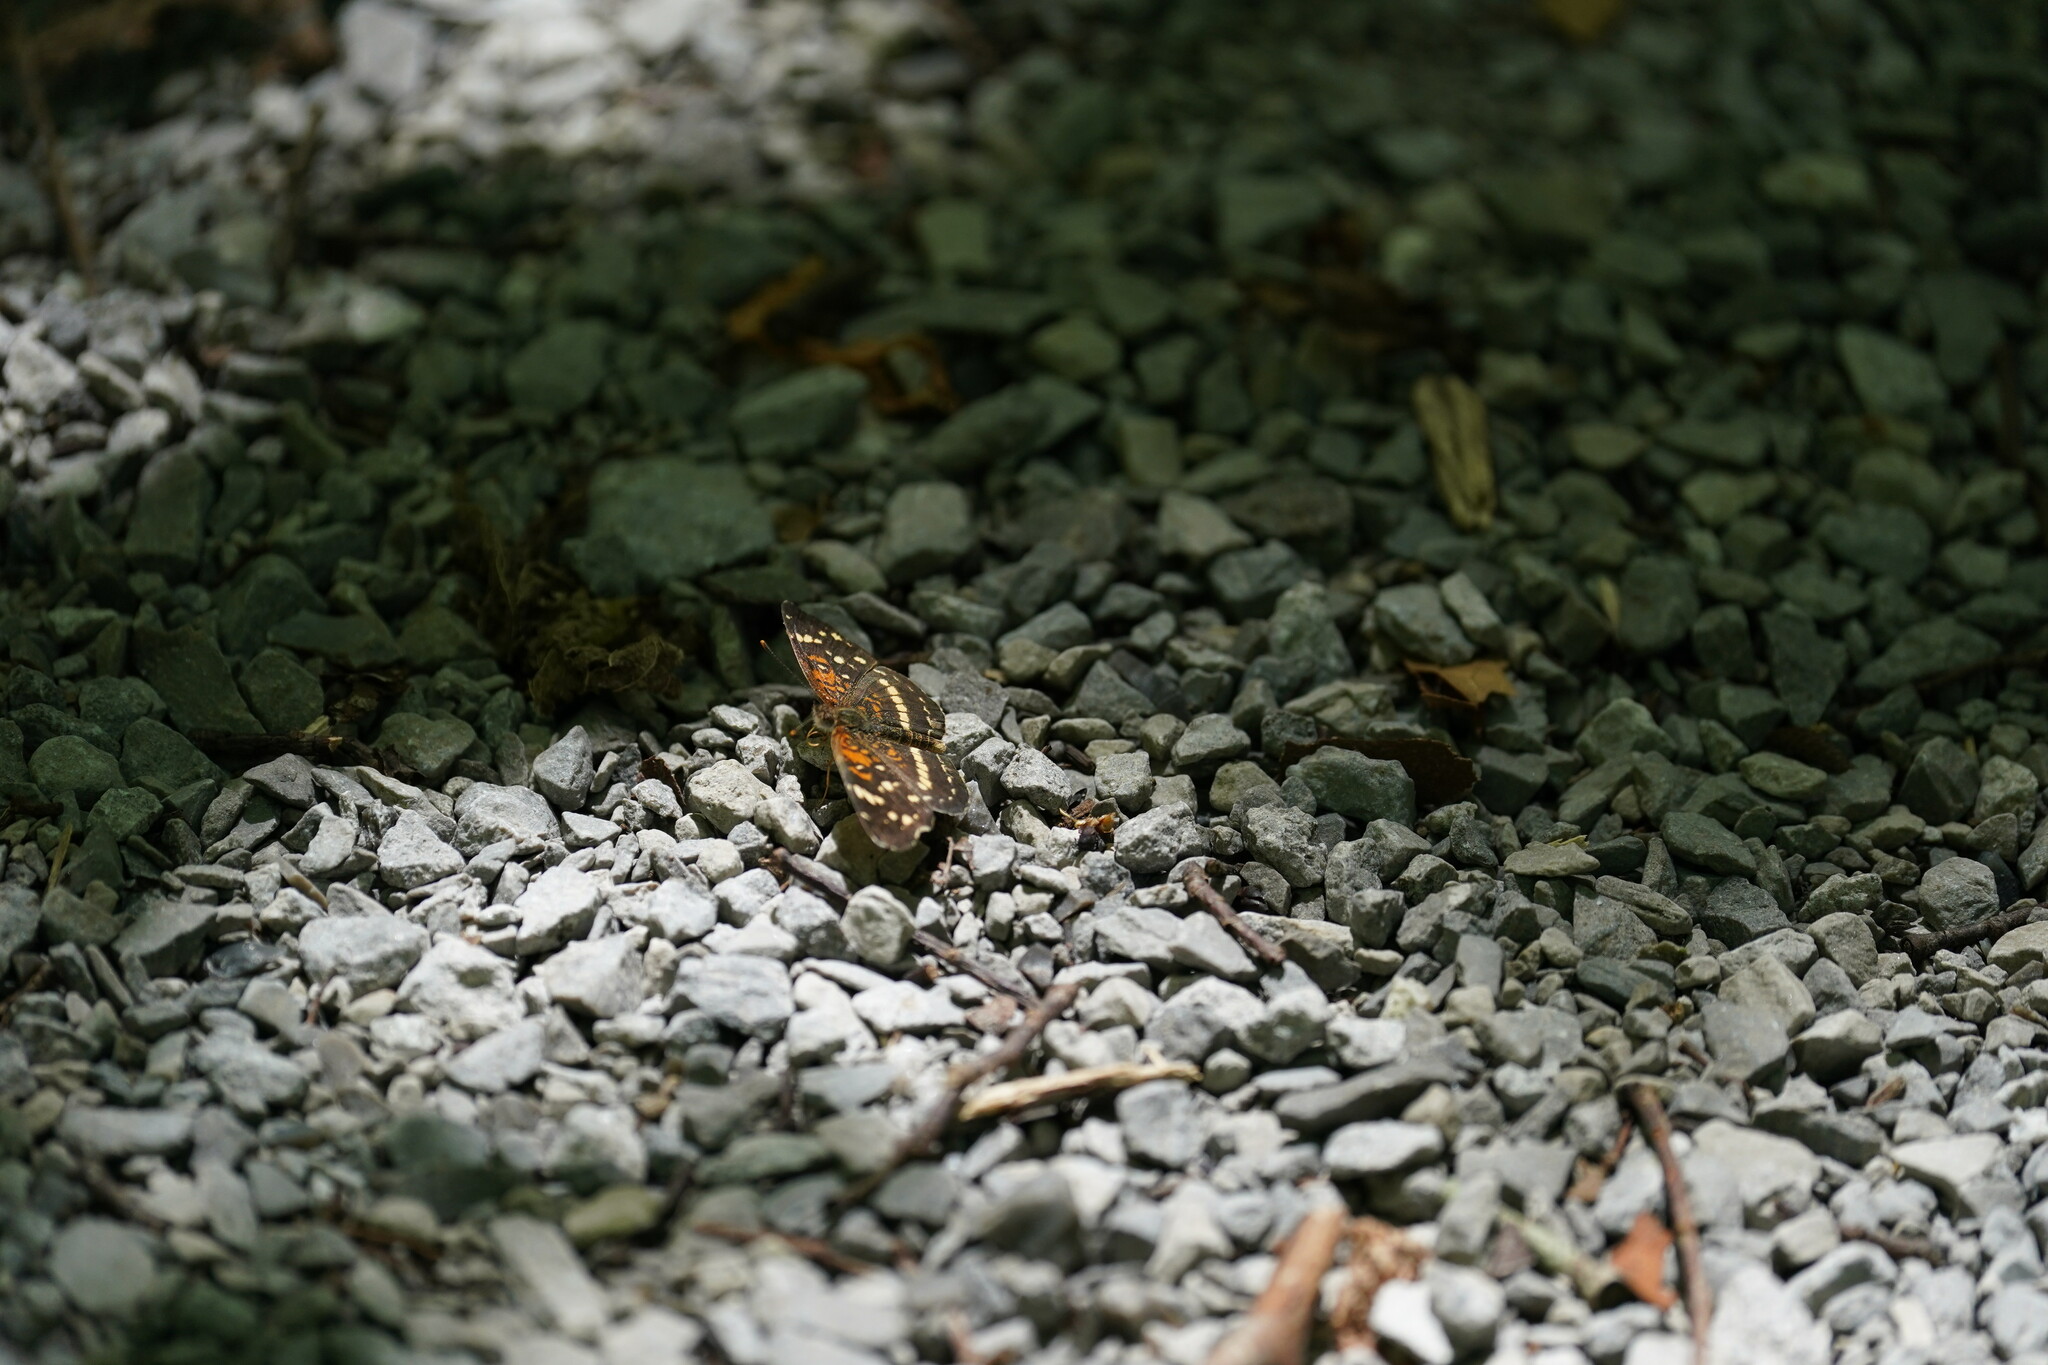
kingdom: Animalia
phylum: Arthropoda
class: Insecta
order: Lepidoptera
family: Nymphalidae
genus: Anthanassa
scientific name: Anthanassa taxana
